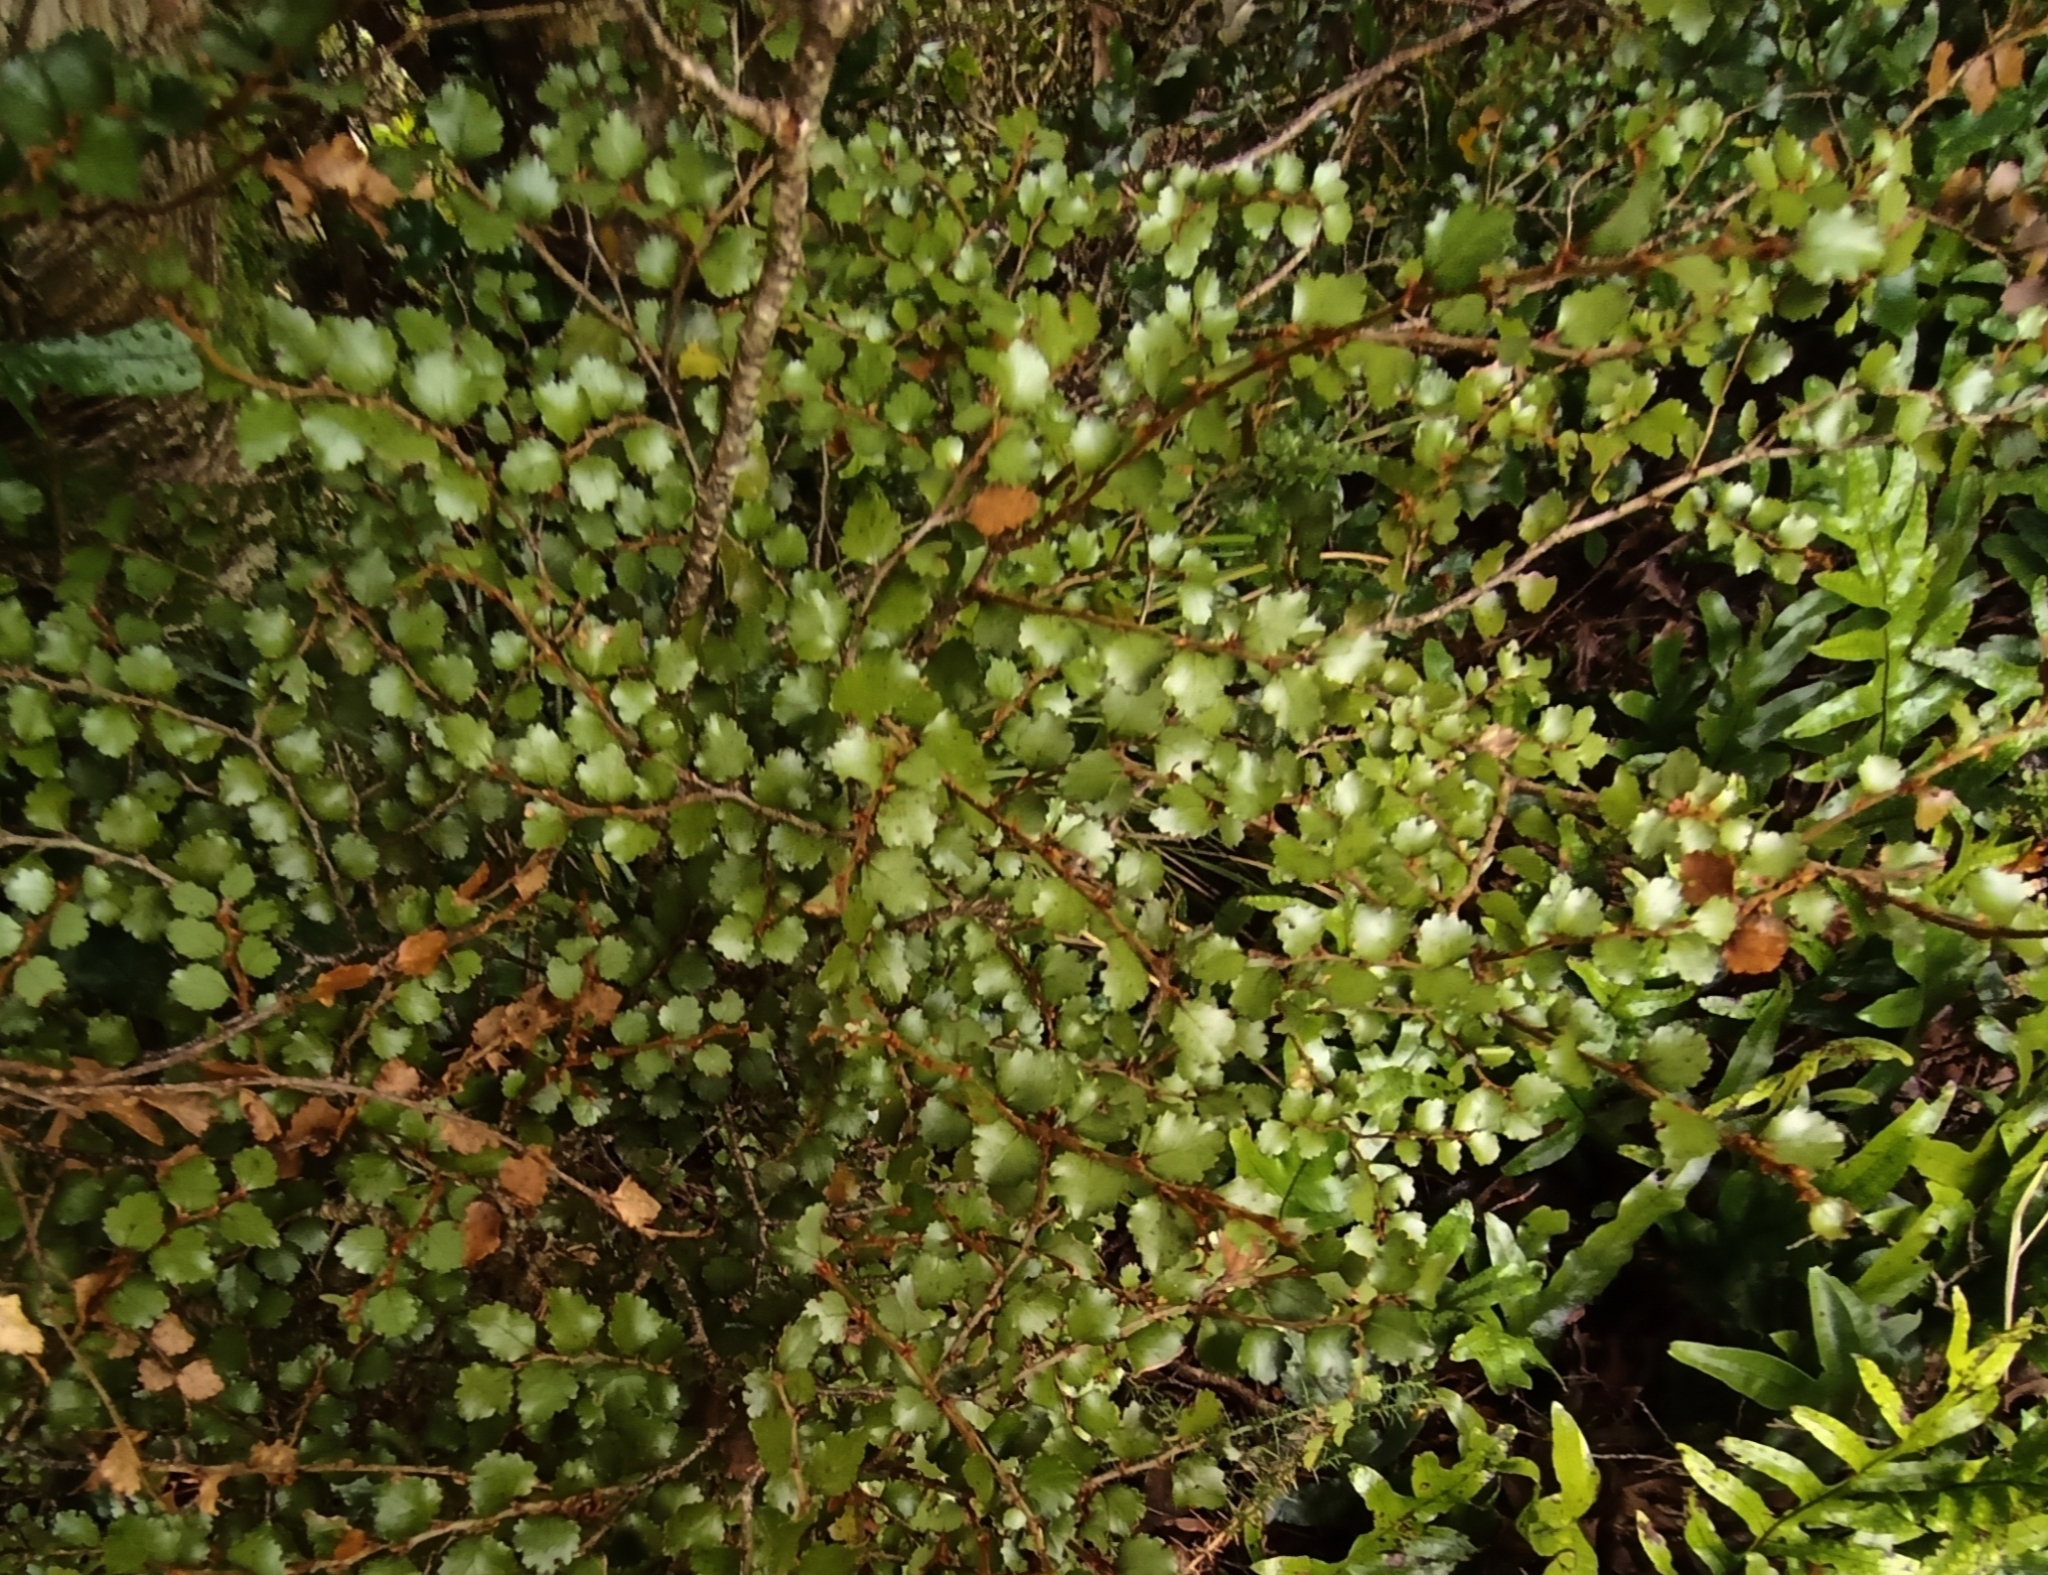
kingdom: Plantae
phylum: Tracheophyta
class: Magnoliopsida
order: Fagales
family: Nothofagaceae
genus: Nothofagus
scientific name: Nothofagus menziesii
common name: Silver beech
